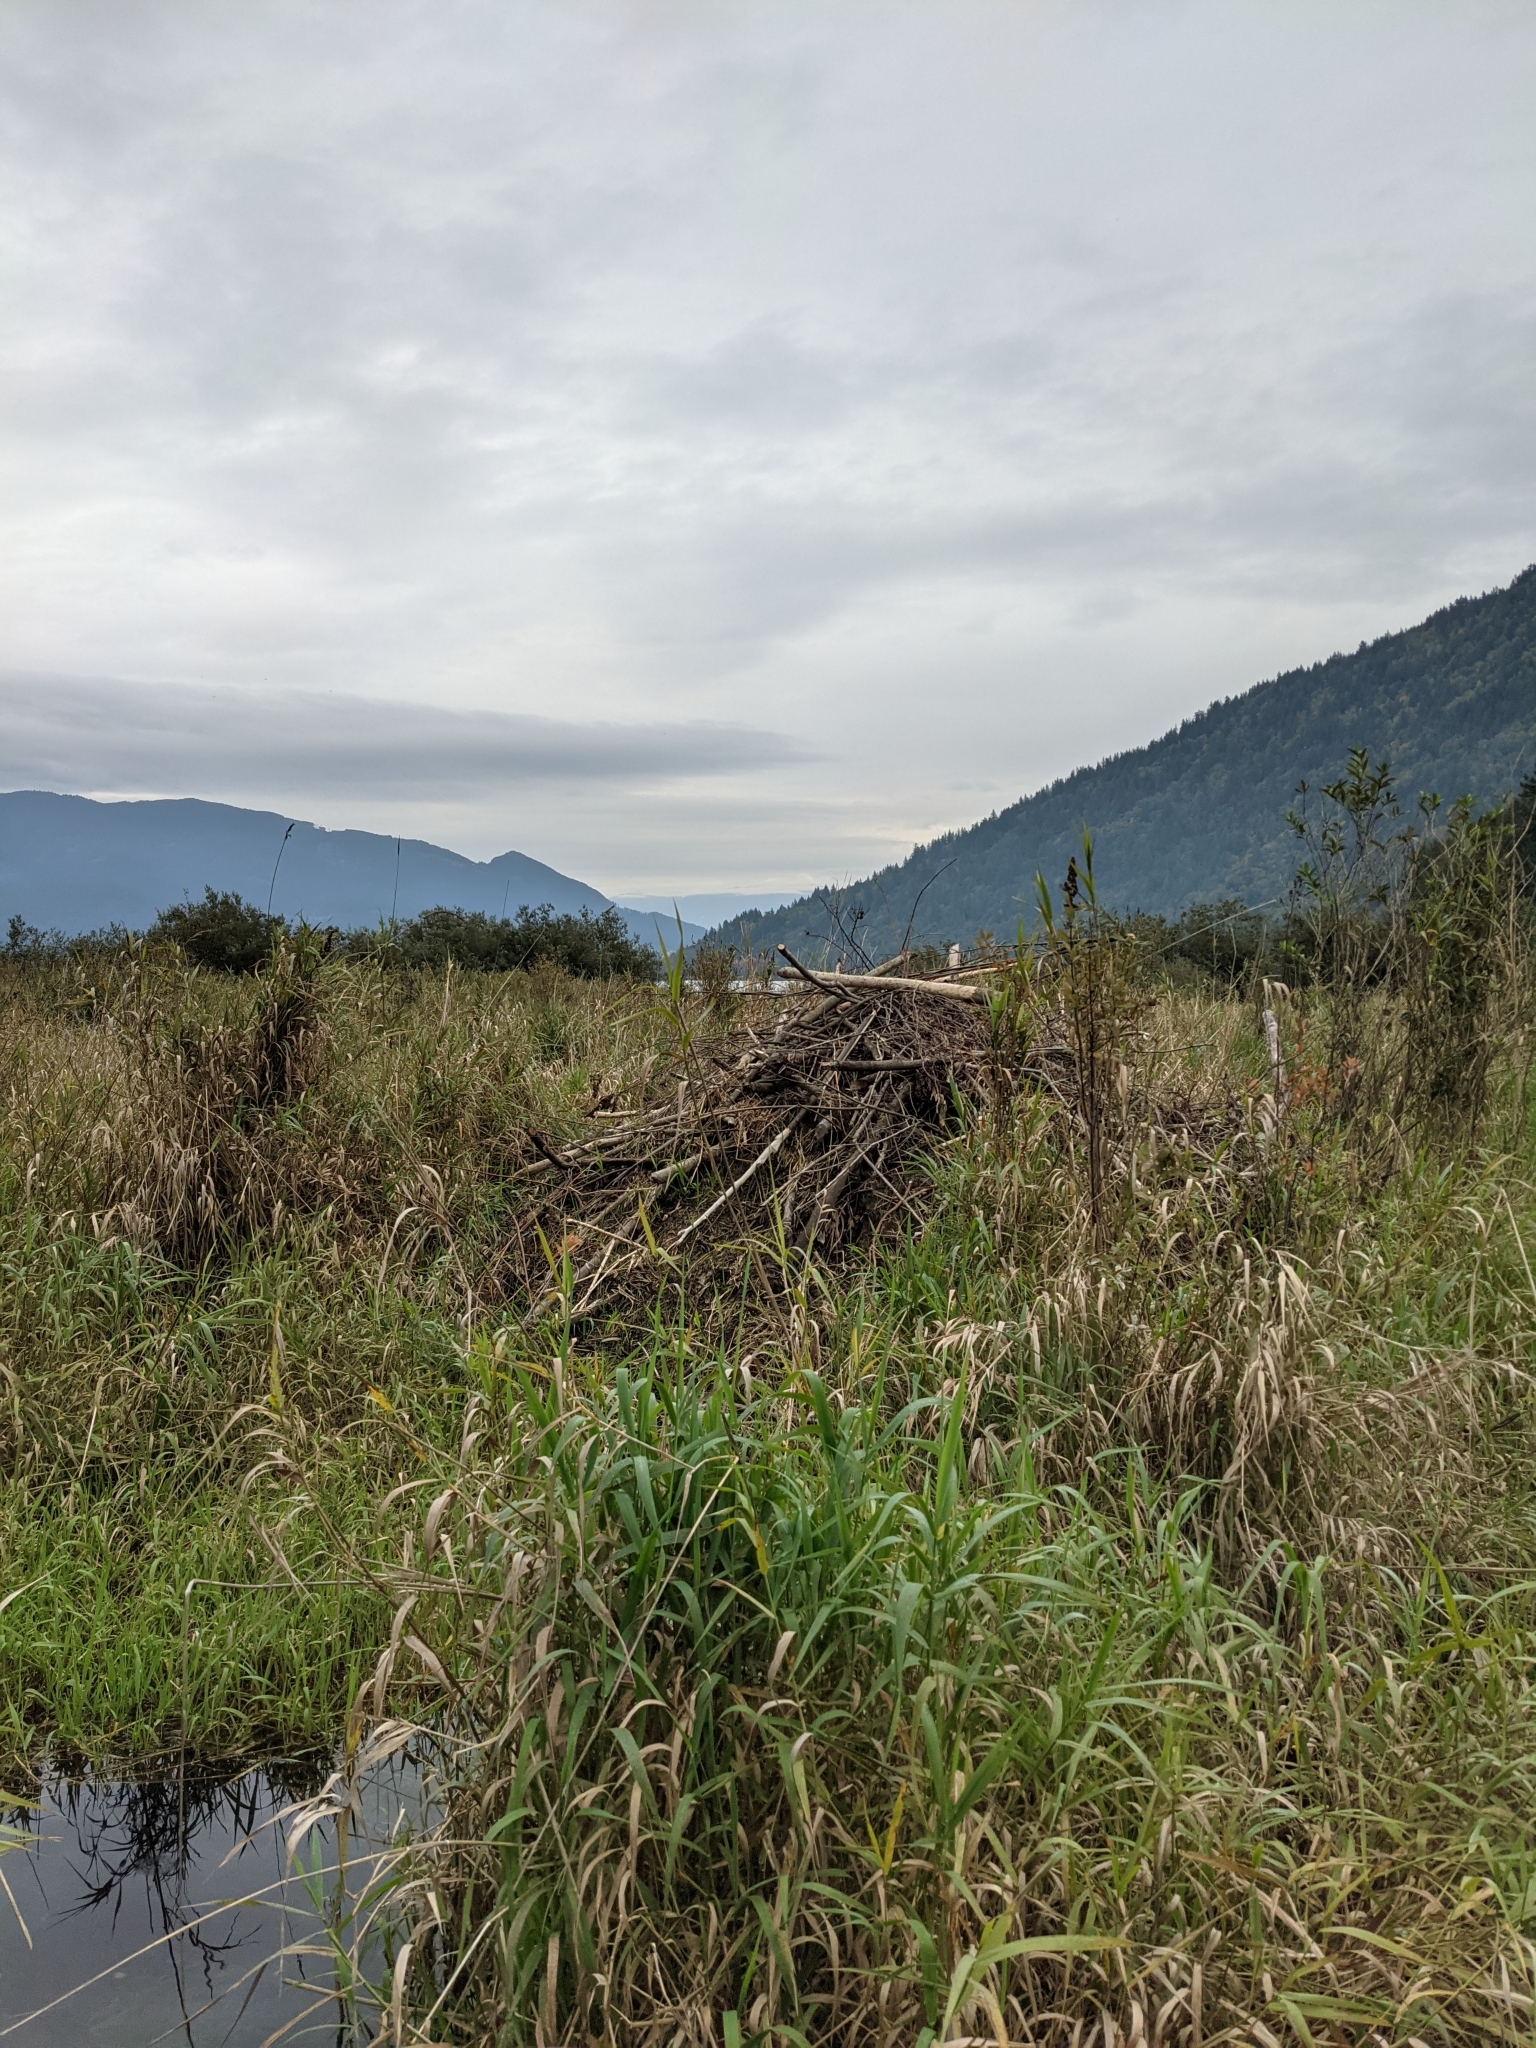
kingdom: Animalia
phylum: Chordata
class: Mammalia
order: Rodentia
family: Castoridae
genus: Castor
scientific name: Castor canadensis
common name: American beaver
